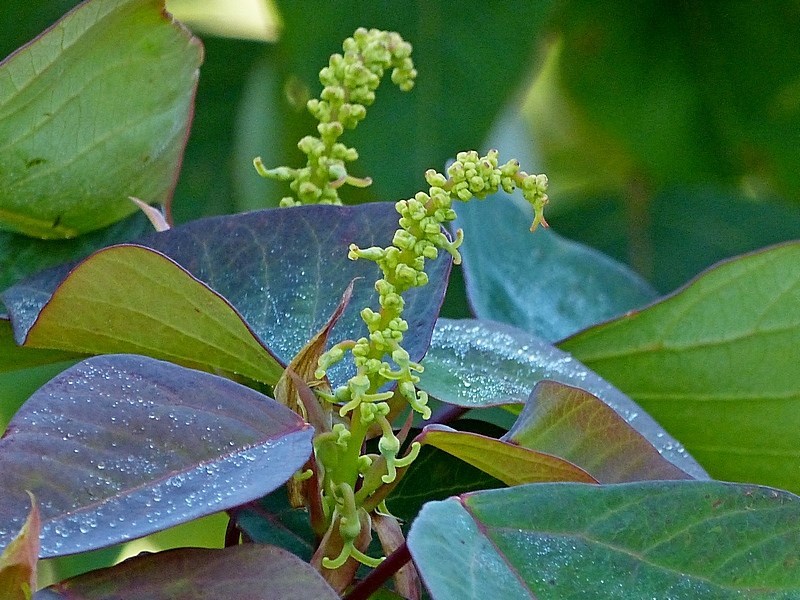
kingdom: Plantae
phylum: Tracheophyta
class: Magnoliopsida
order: Malpighiales
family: Euphorbiaceae
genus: Homalanthus
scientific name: Homalanthus populifolius
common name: Queensland poplar
